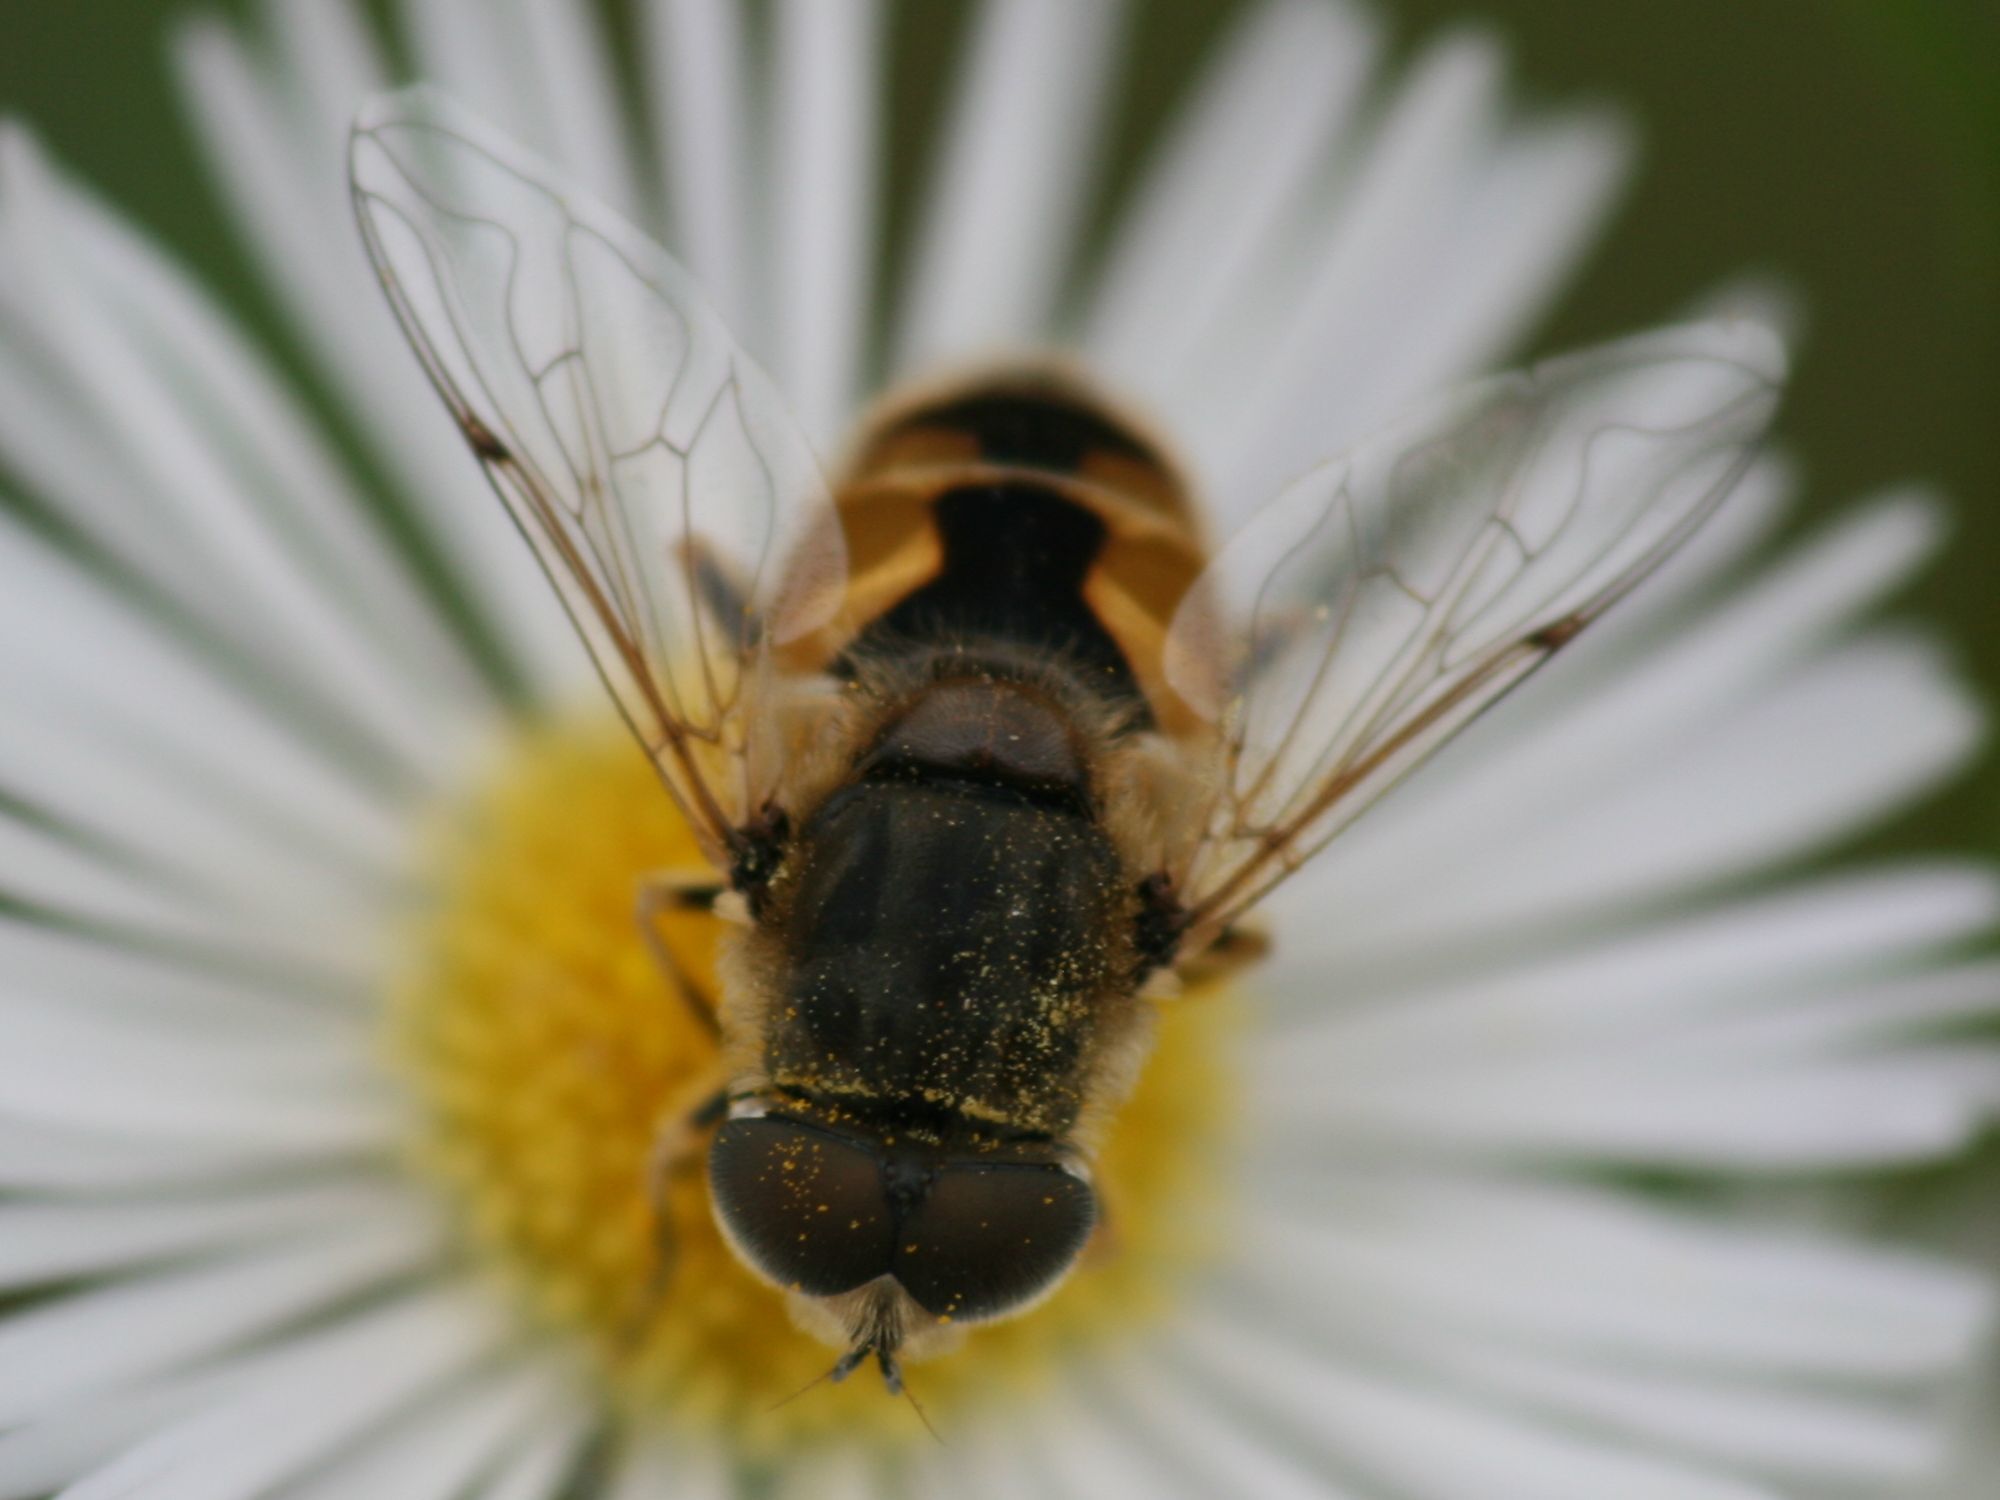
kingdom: Animalia
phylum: Arthropoda
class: Insecta
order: Diptera
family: Syrphidae
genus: Eristalis
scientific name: Eristalis arbustorum
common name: Hover fly
